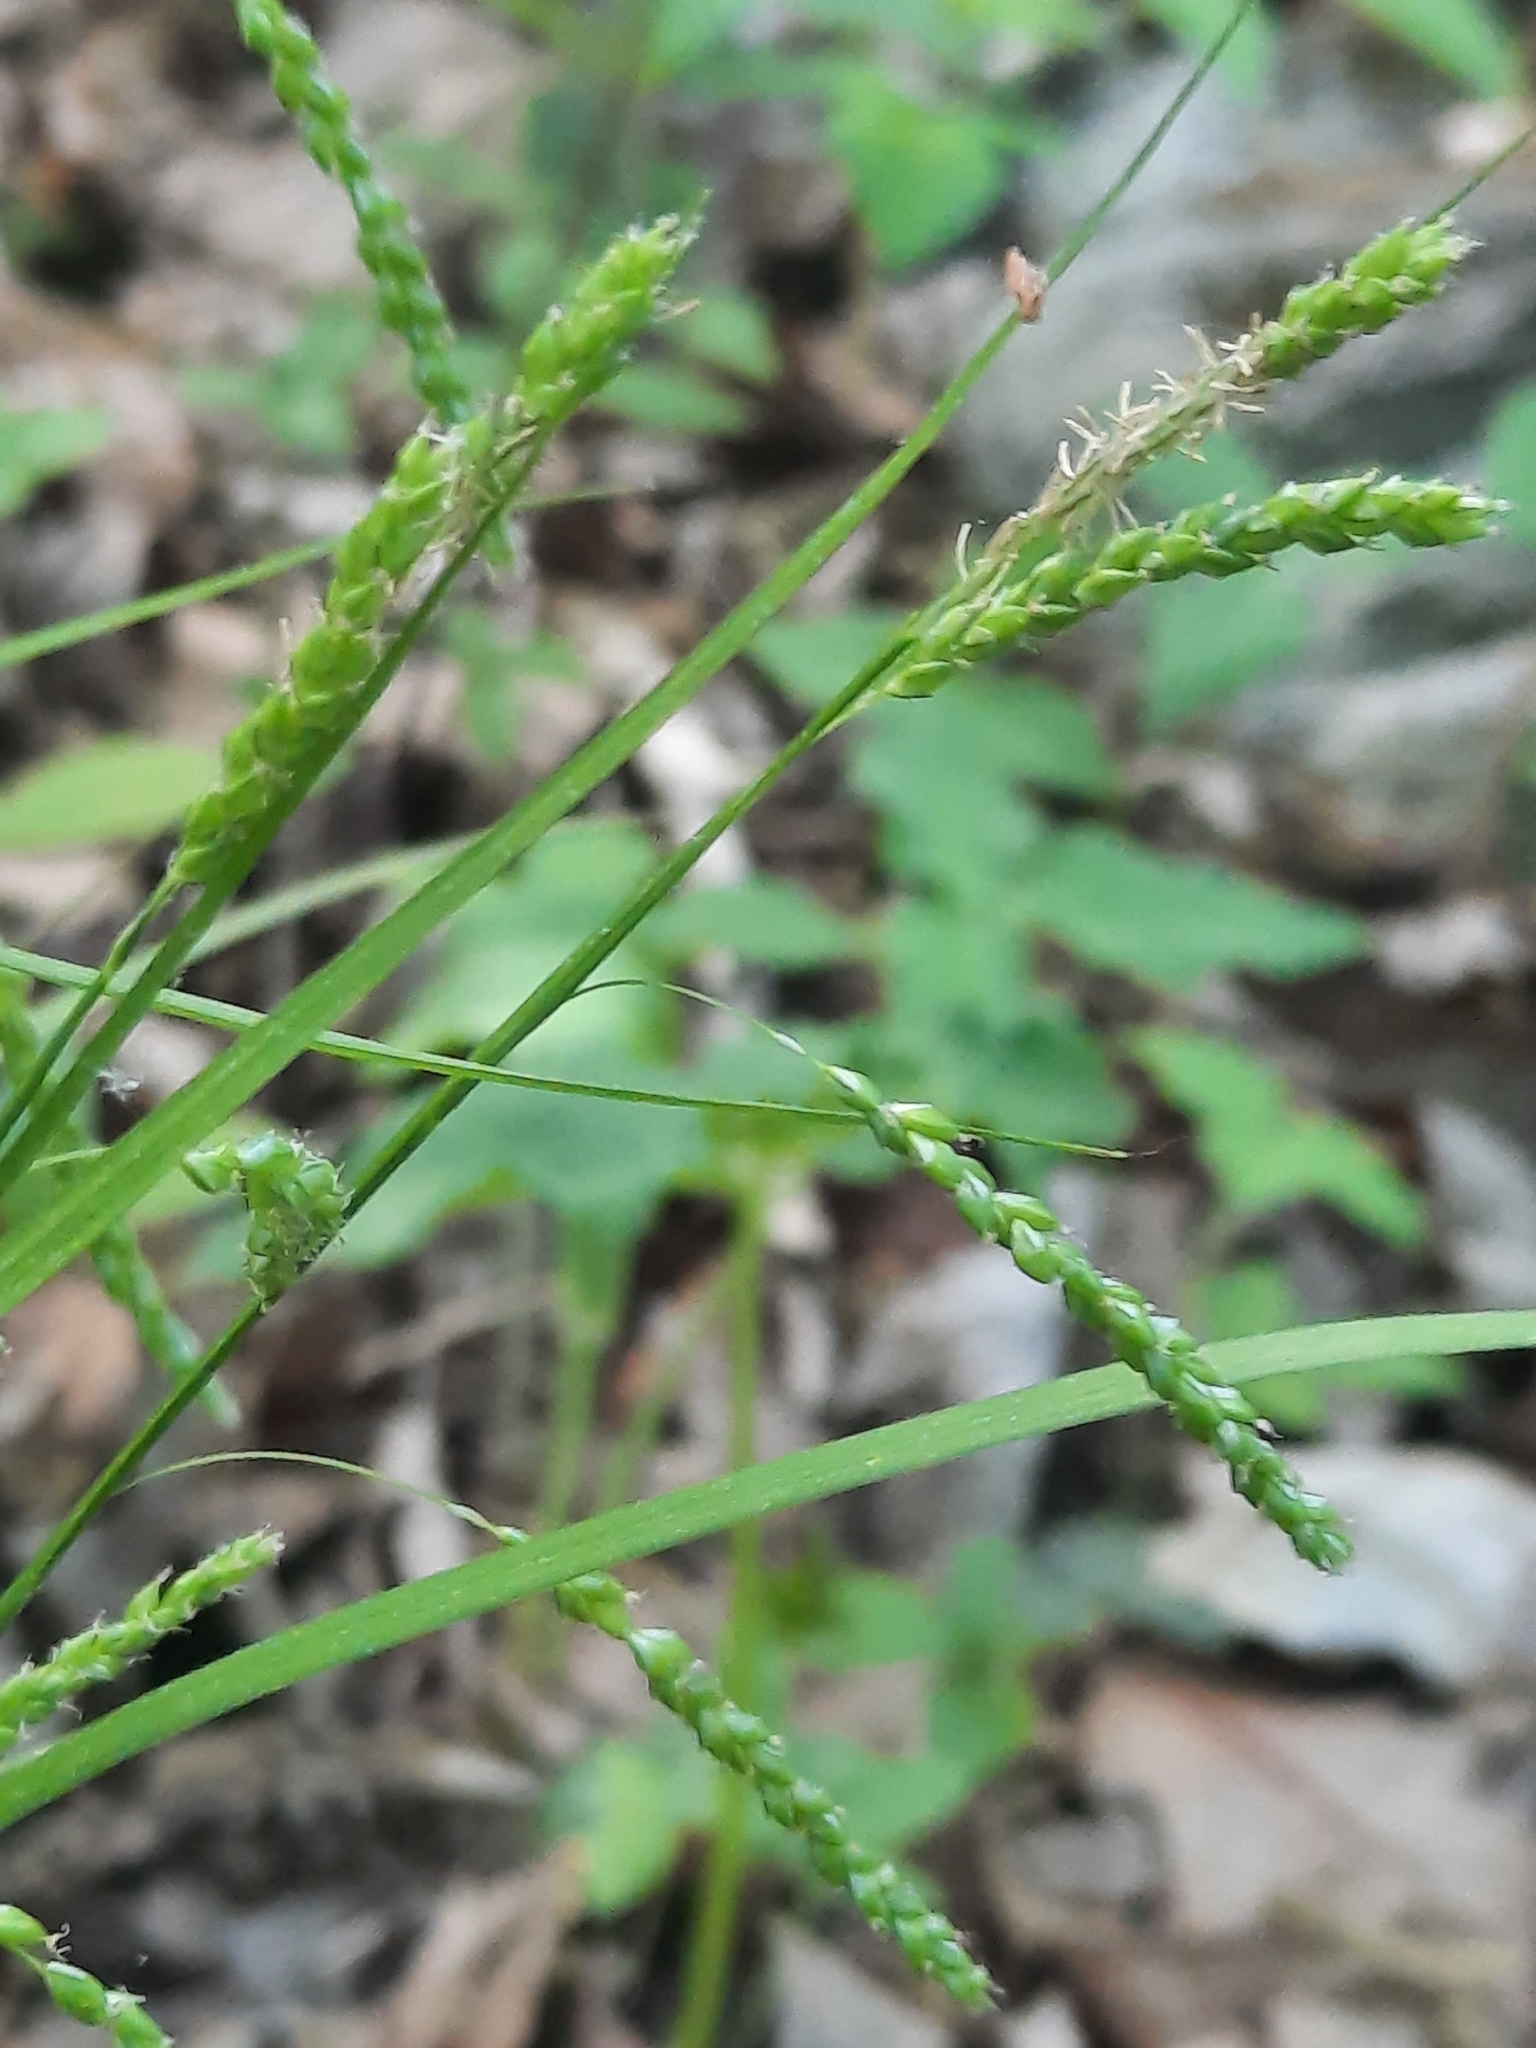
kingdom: Plantae
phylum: Tracheophyta
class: Liliopsida
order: Poales
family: Cyperaceae
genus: Carex
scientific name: Carex gracillima
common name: Graceful sedge
